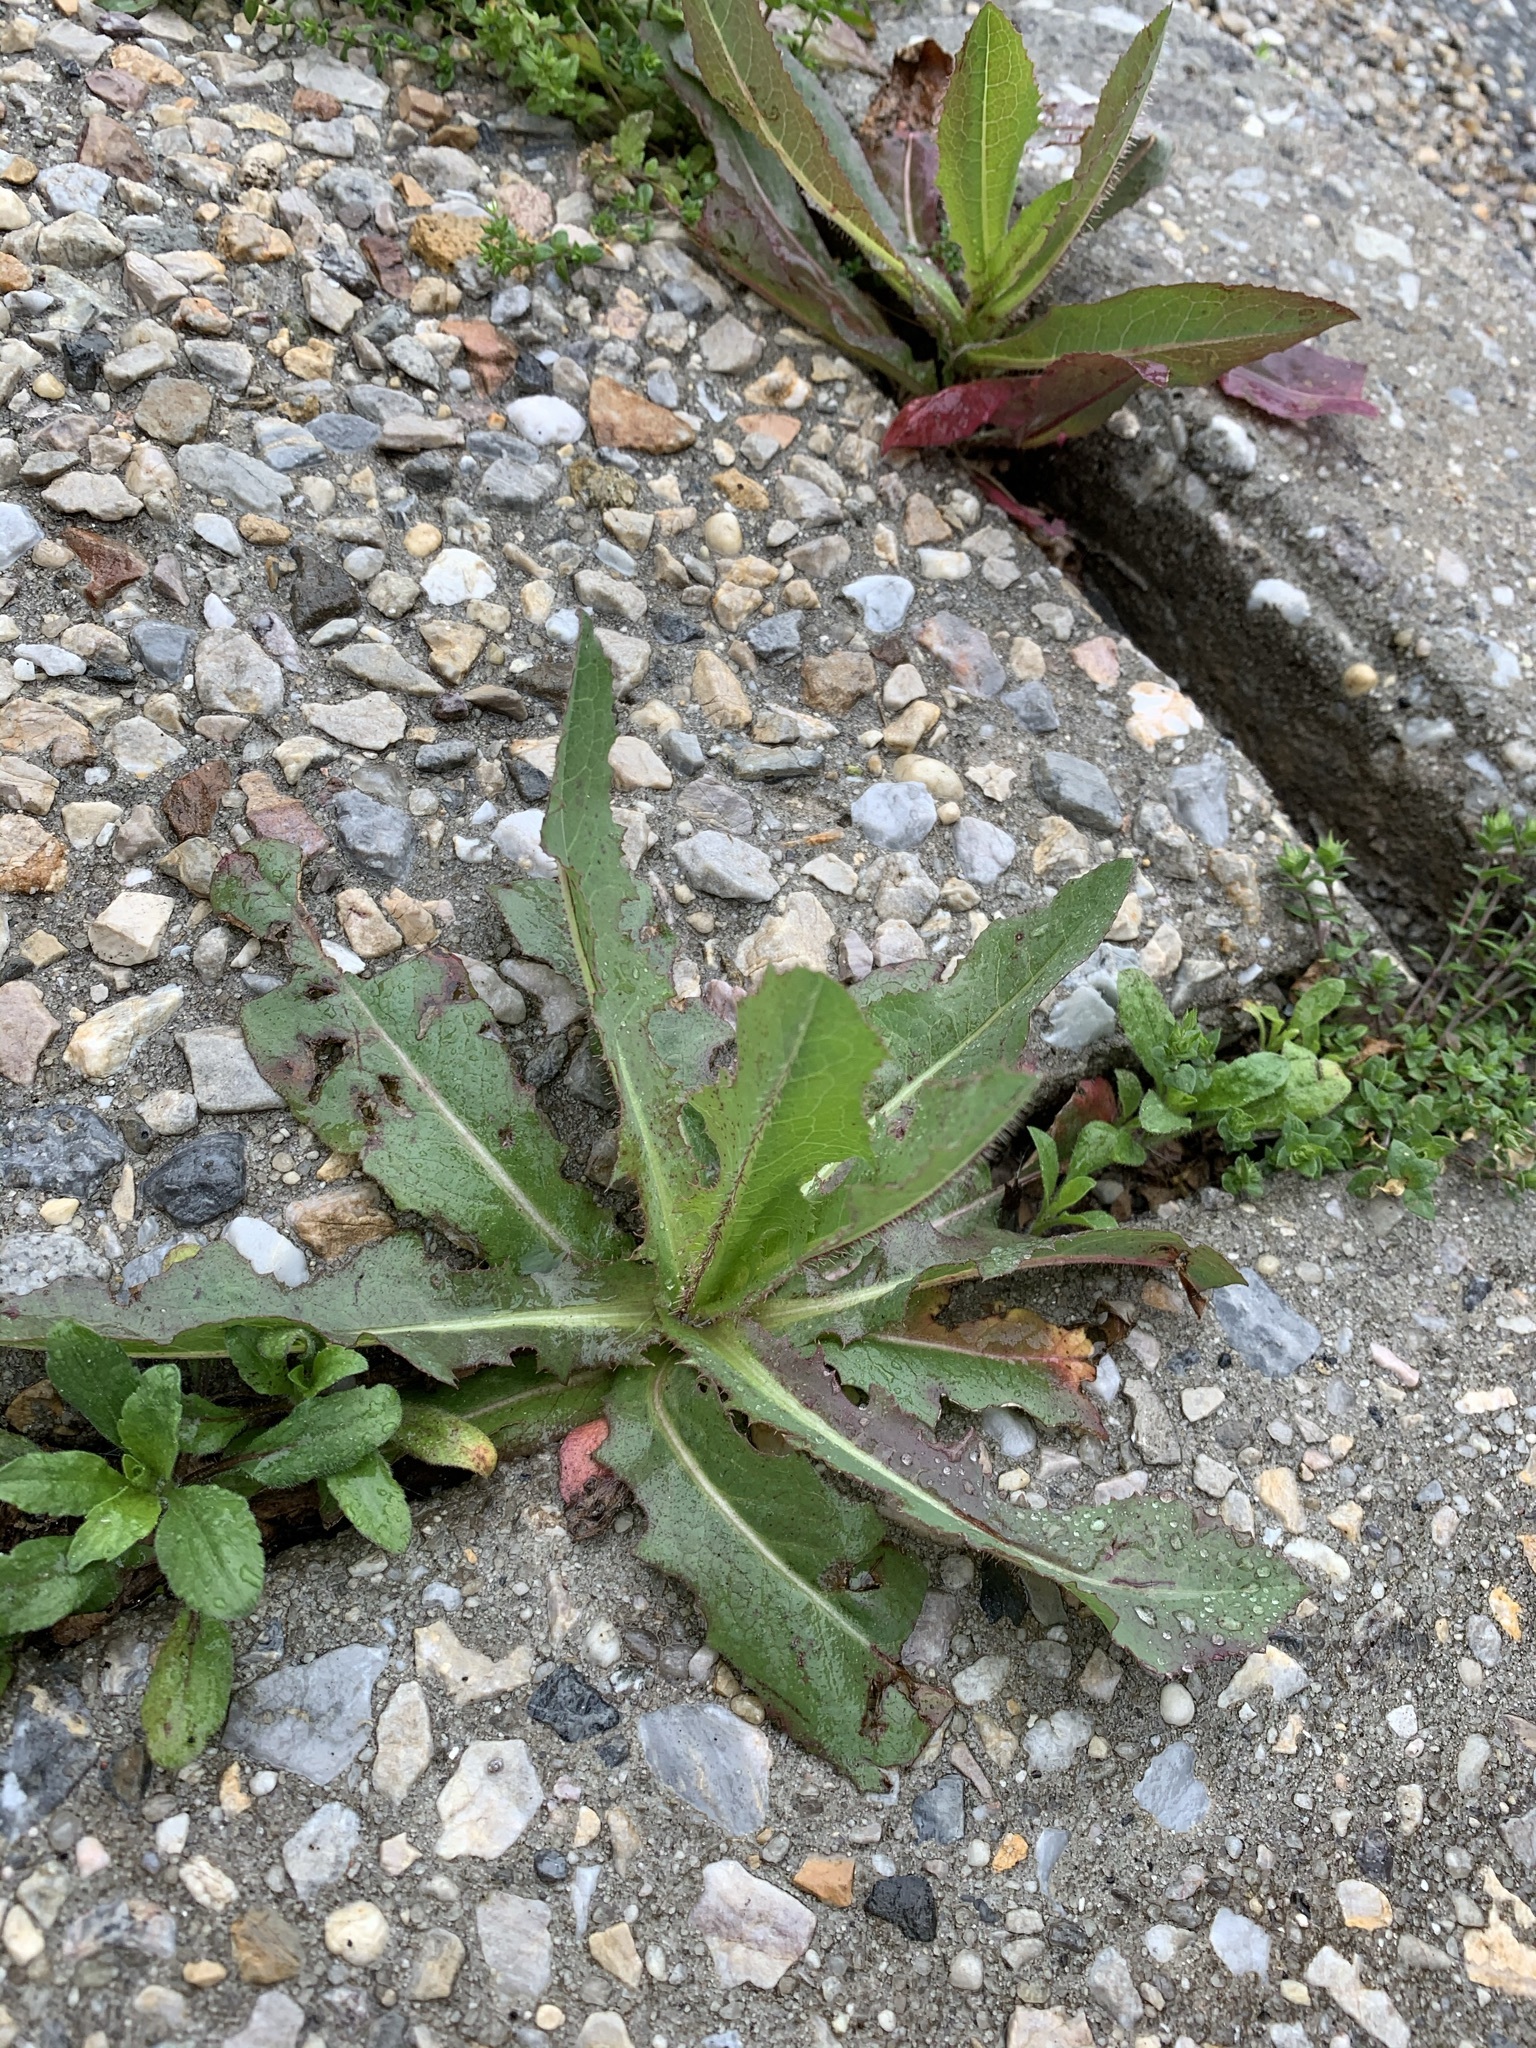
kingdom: Plantae
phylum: Tracheophyta
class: Magnoliopsida
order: Asterales
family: Asteraceae
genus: Lactuca
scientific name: Lactuca serriola
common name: Prickly lettuce
